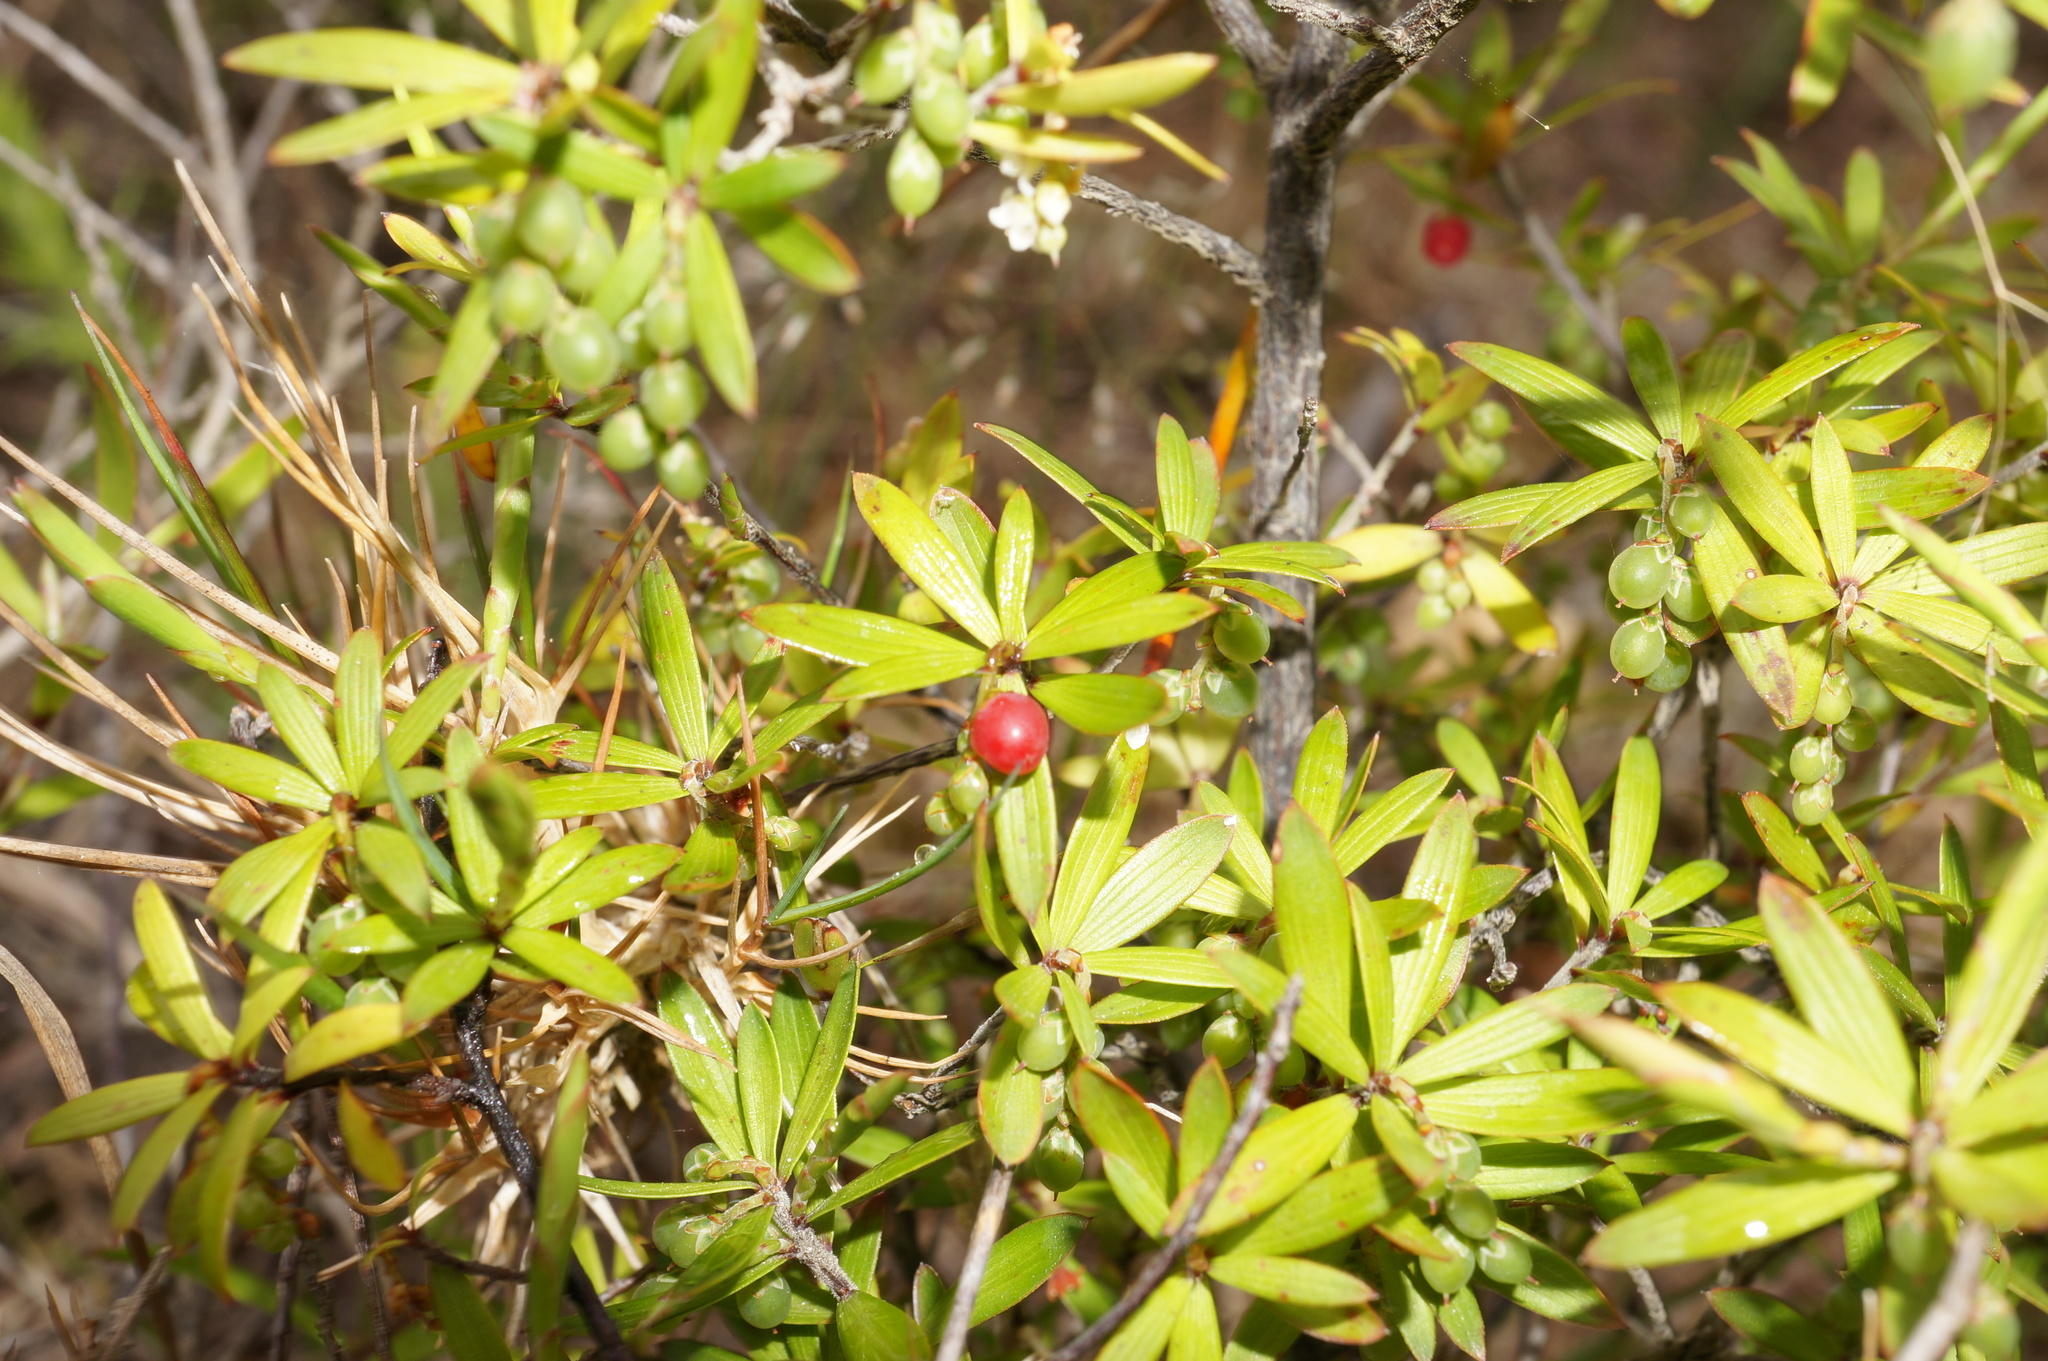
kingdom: Plantae
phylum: Tracheophyta
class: Magnoliopsida
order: Ericales
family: Ericaceae
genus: Leucopogon
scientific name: Leucopogon fasciculatus
